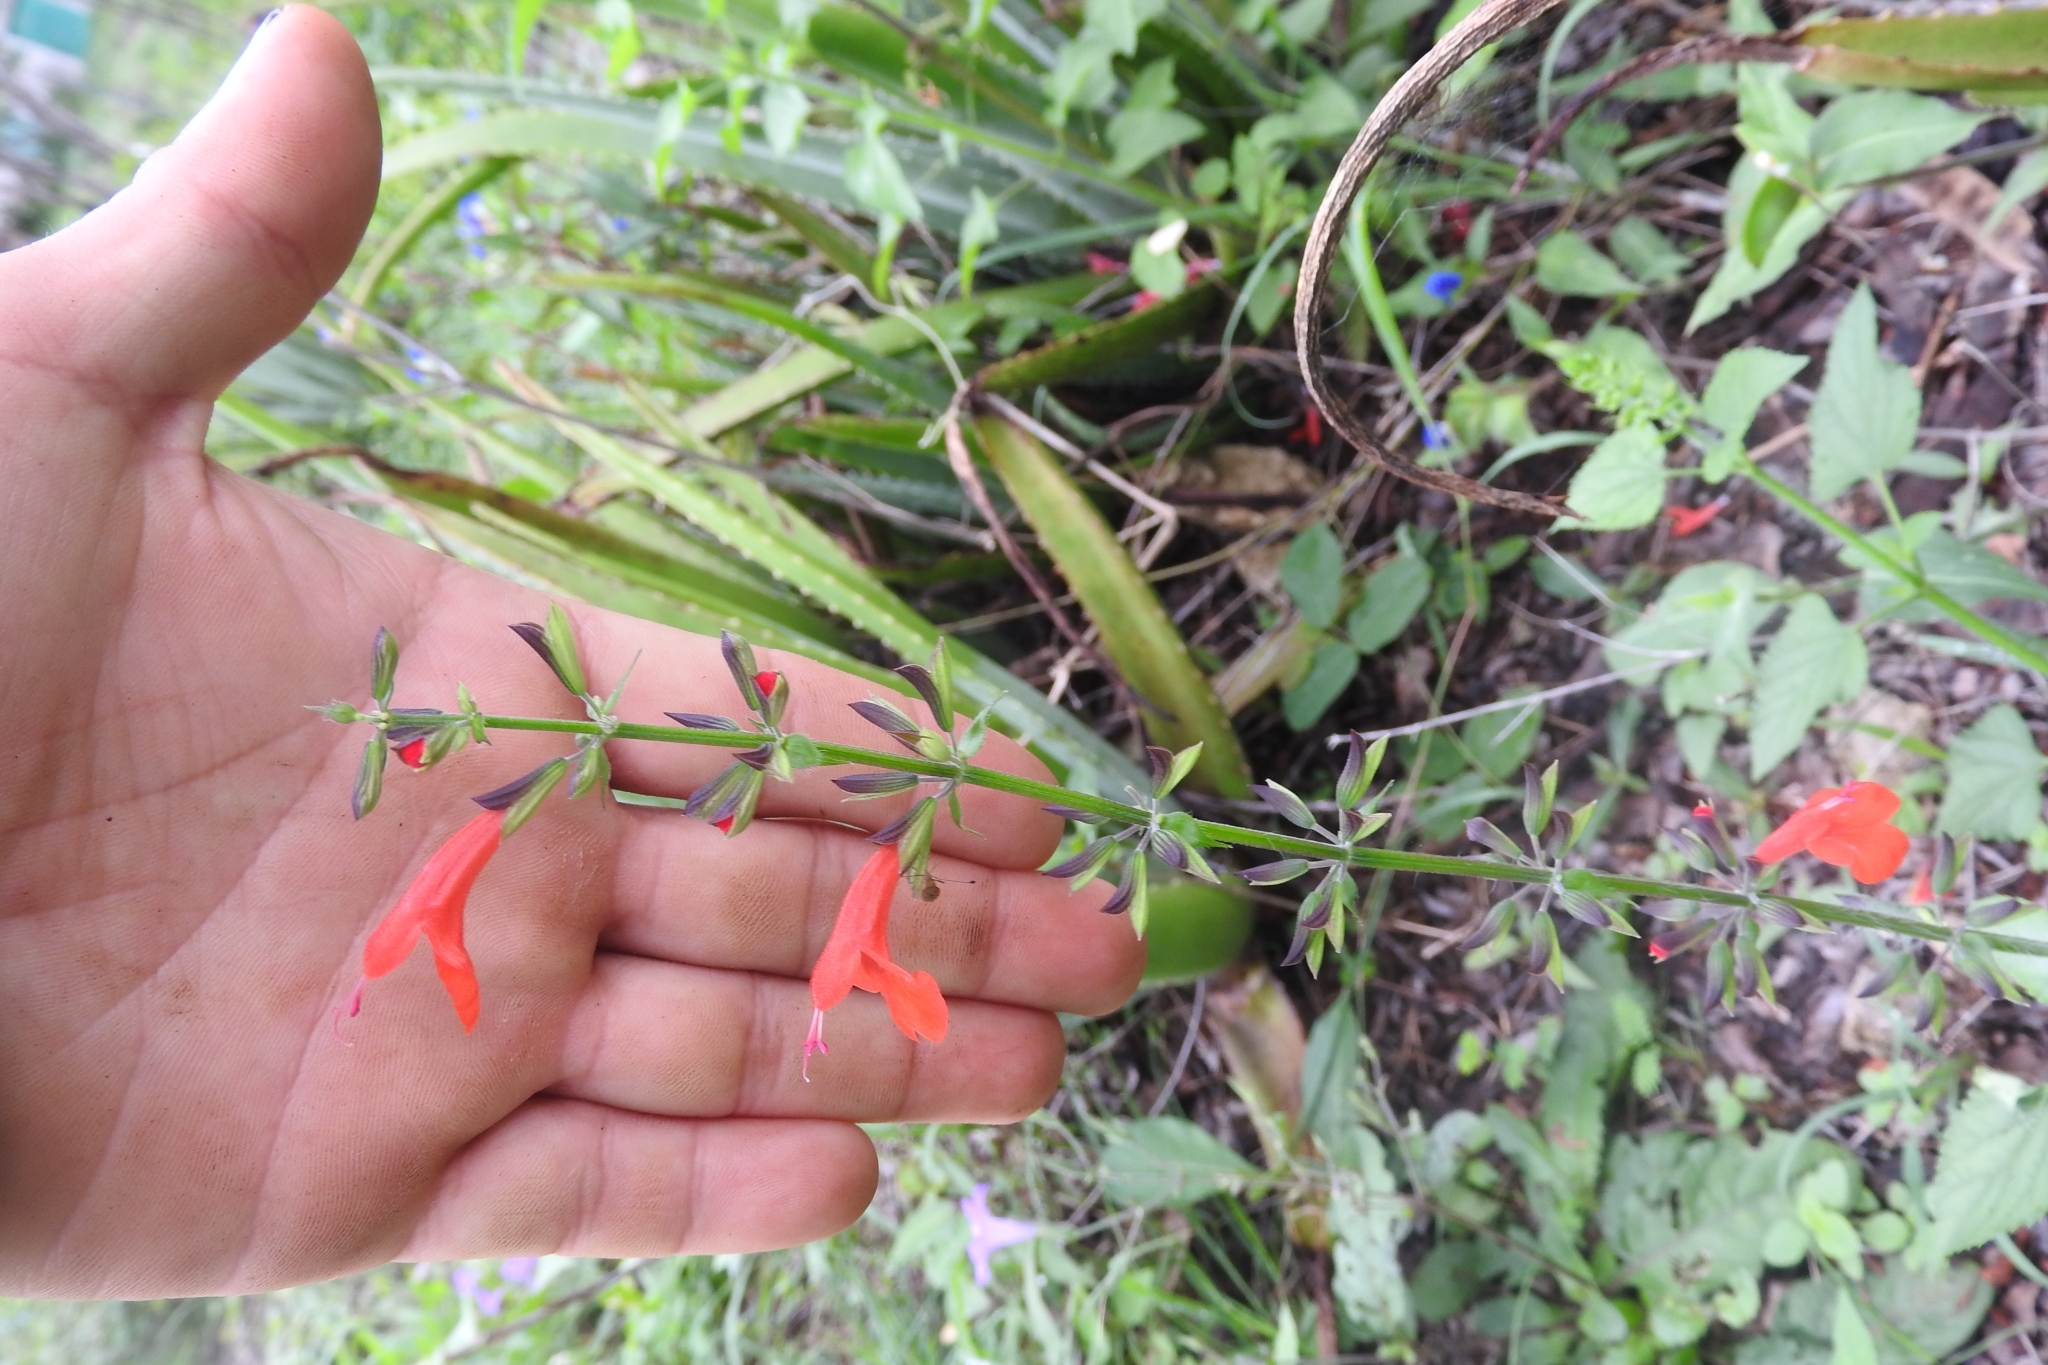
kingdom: Plantae
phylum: Tracheophyta
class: Magnoliopsida
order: Lamiales
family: Lamiaceae
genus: Salvia
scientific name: Salvia coccinea
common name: Blood sage
